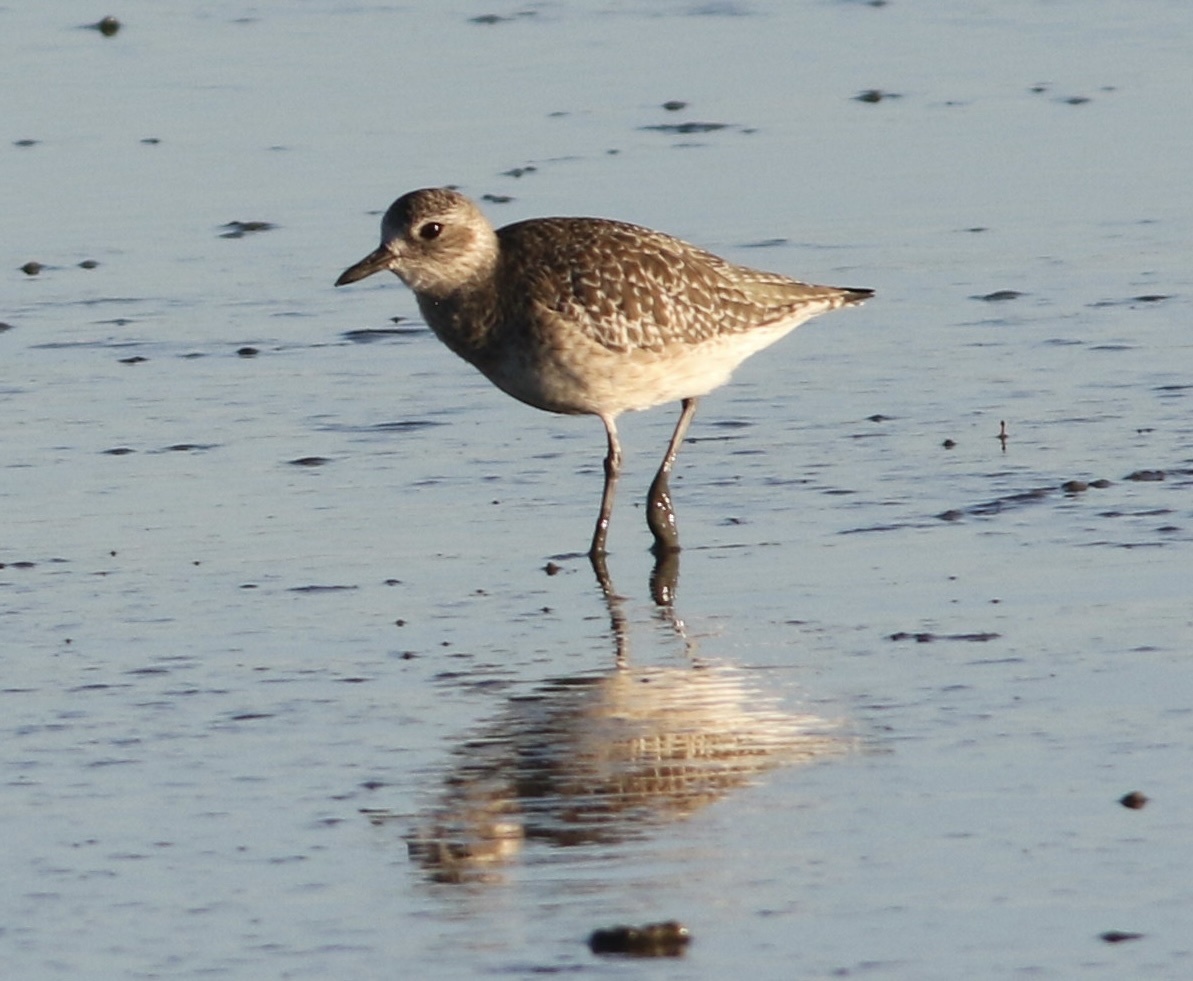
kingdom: Animalia
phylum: Chordata
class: Aves
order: Charadriiformes
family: Charadriidae
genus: Pluvialis
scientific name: Pluvialis squatarola
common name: Grey plover
